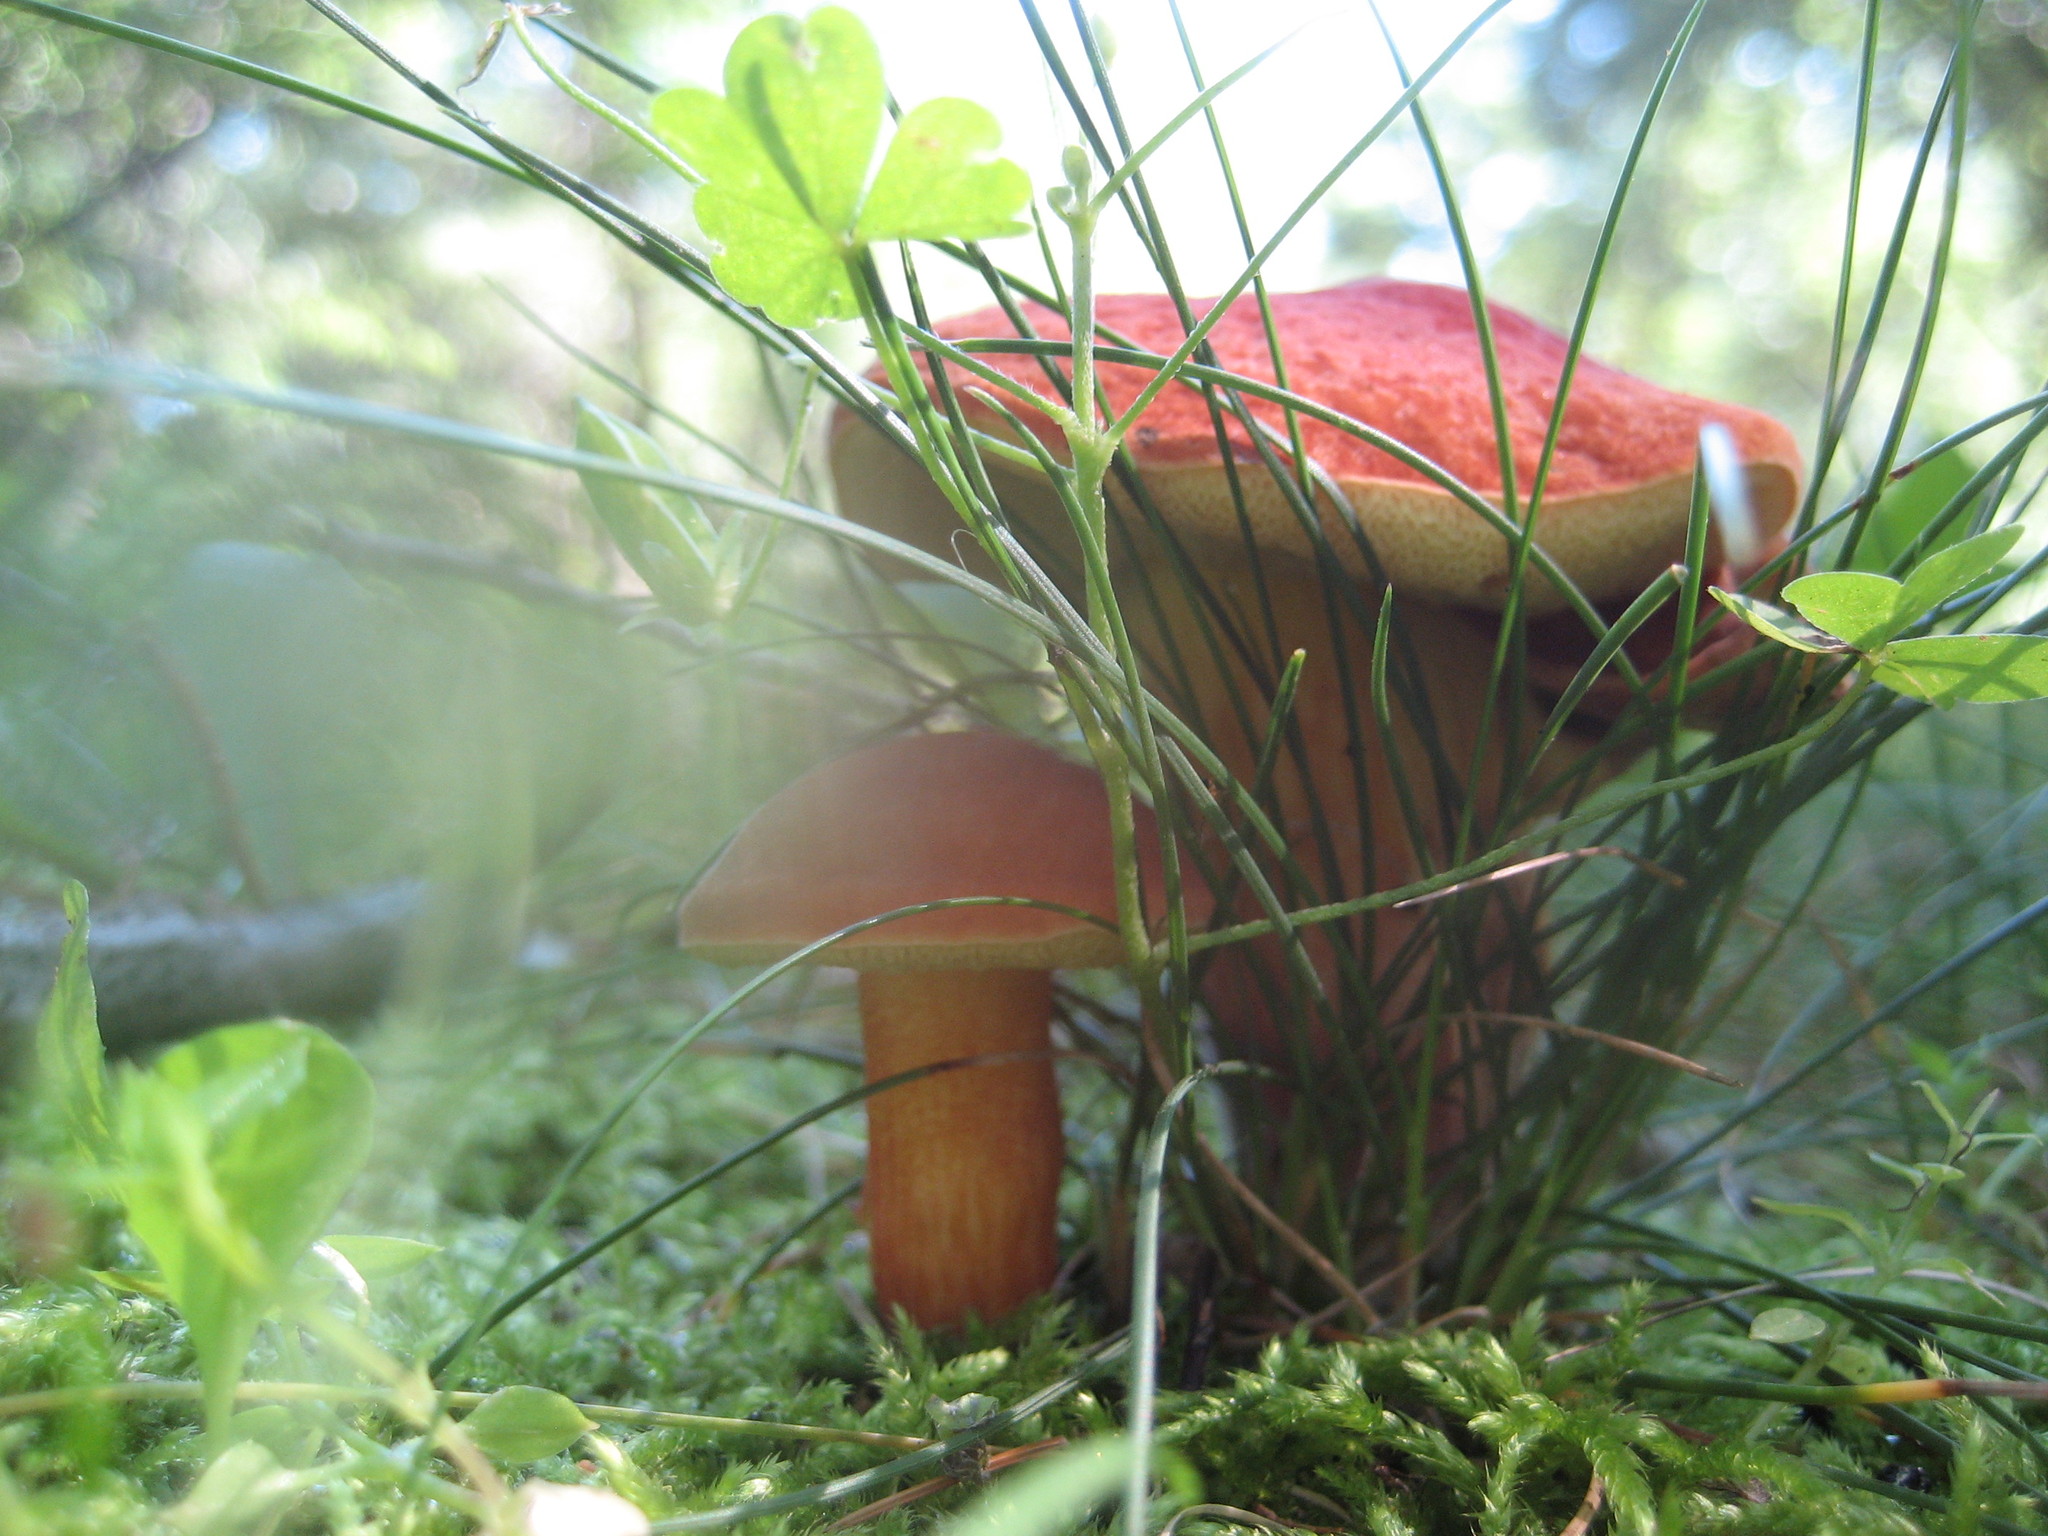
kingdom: Fungi
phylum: Basidiomycota
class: Agaricomycetes
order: Boletales
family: Boletaceae
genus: Xerocomellus
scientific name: Xerocomellus
